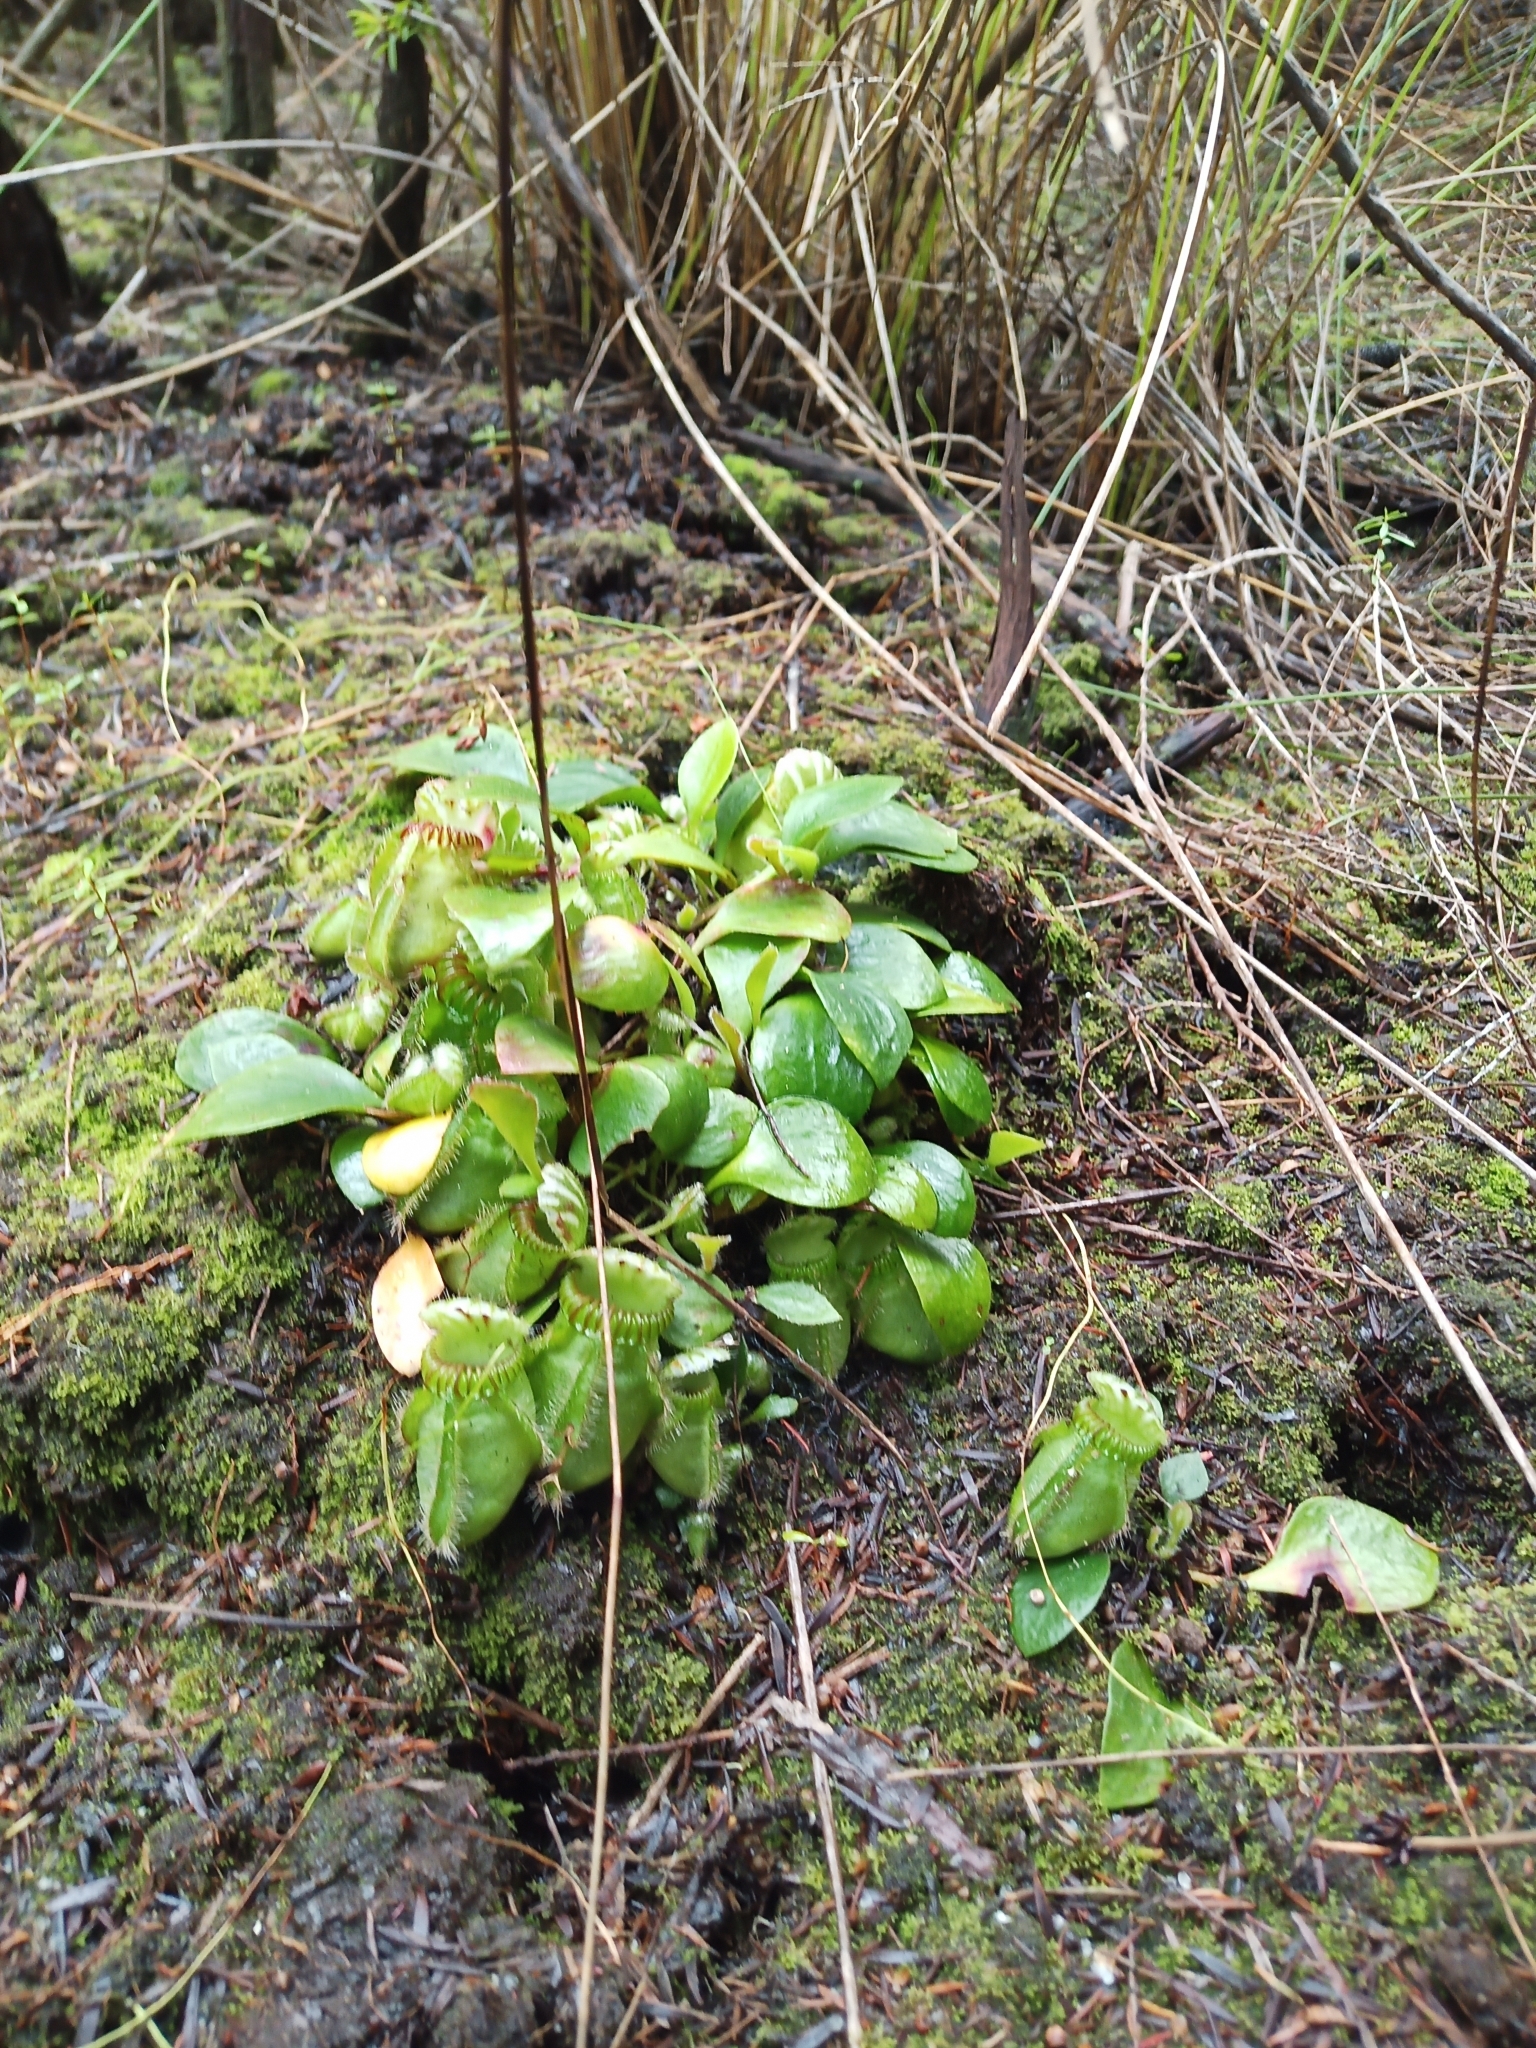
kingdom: Plantae
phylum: Tracheophyta
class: Magnoliopsida
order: Oxalidales
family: Cephalotaceae
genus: Cephalotus
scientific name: Cephalotus follicularis
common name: Australian pitcher plant
